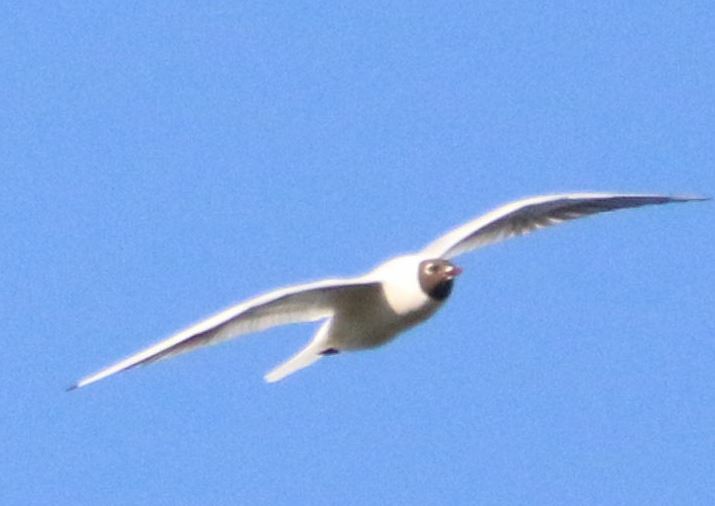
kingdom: Animalia
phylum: Chordata
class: Aves
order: Charadriiformes
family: Laridae
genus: Chroicocephalus
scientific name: Chroicocephalus ridibundus
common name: Black-headed gull
